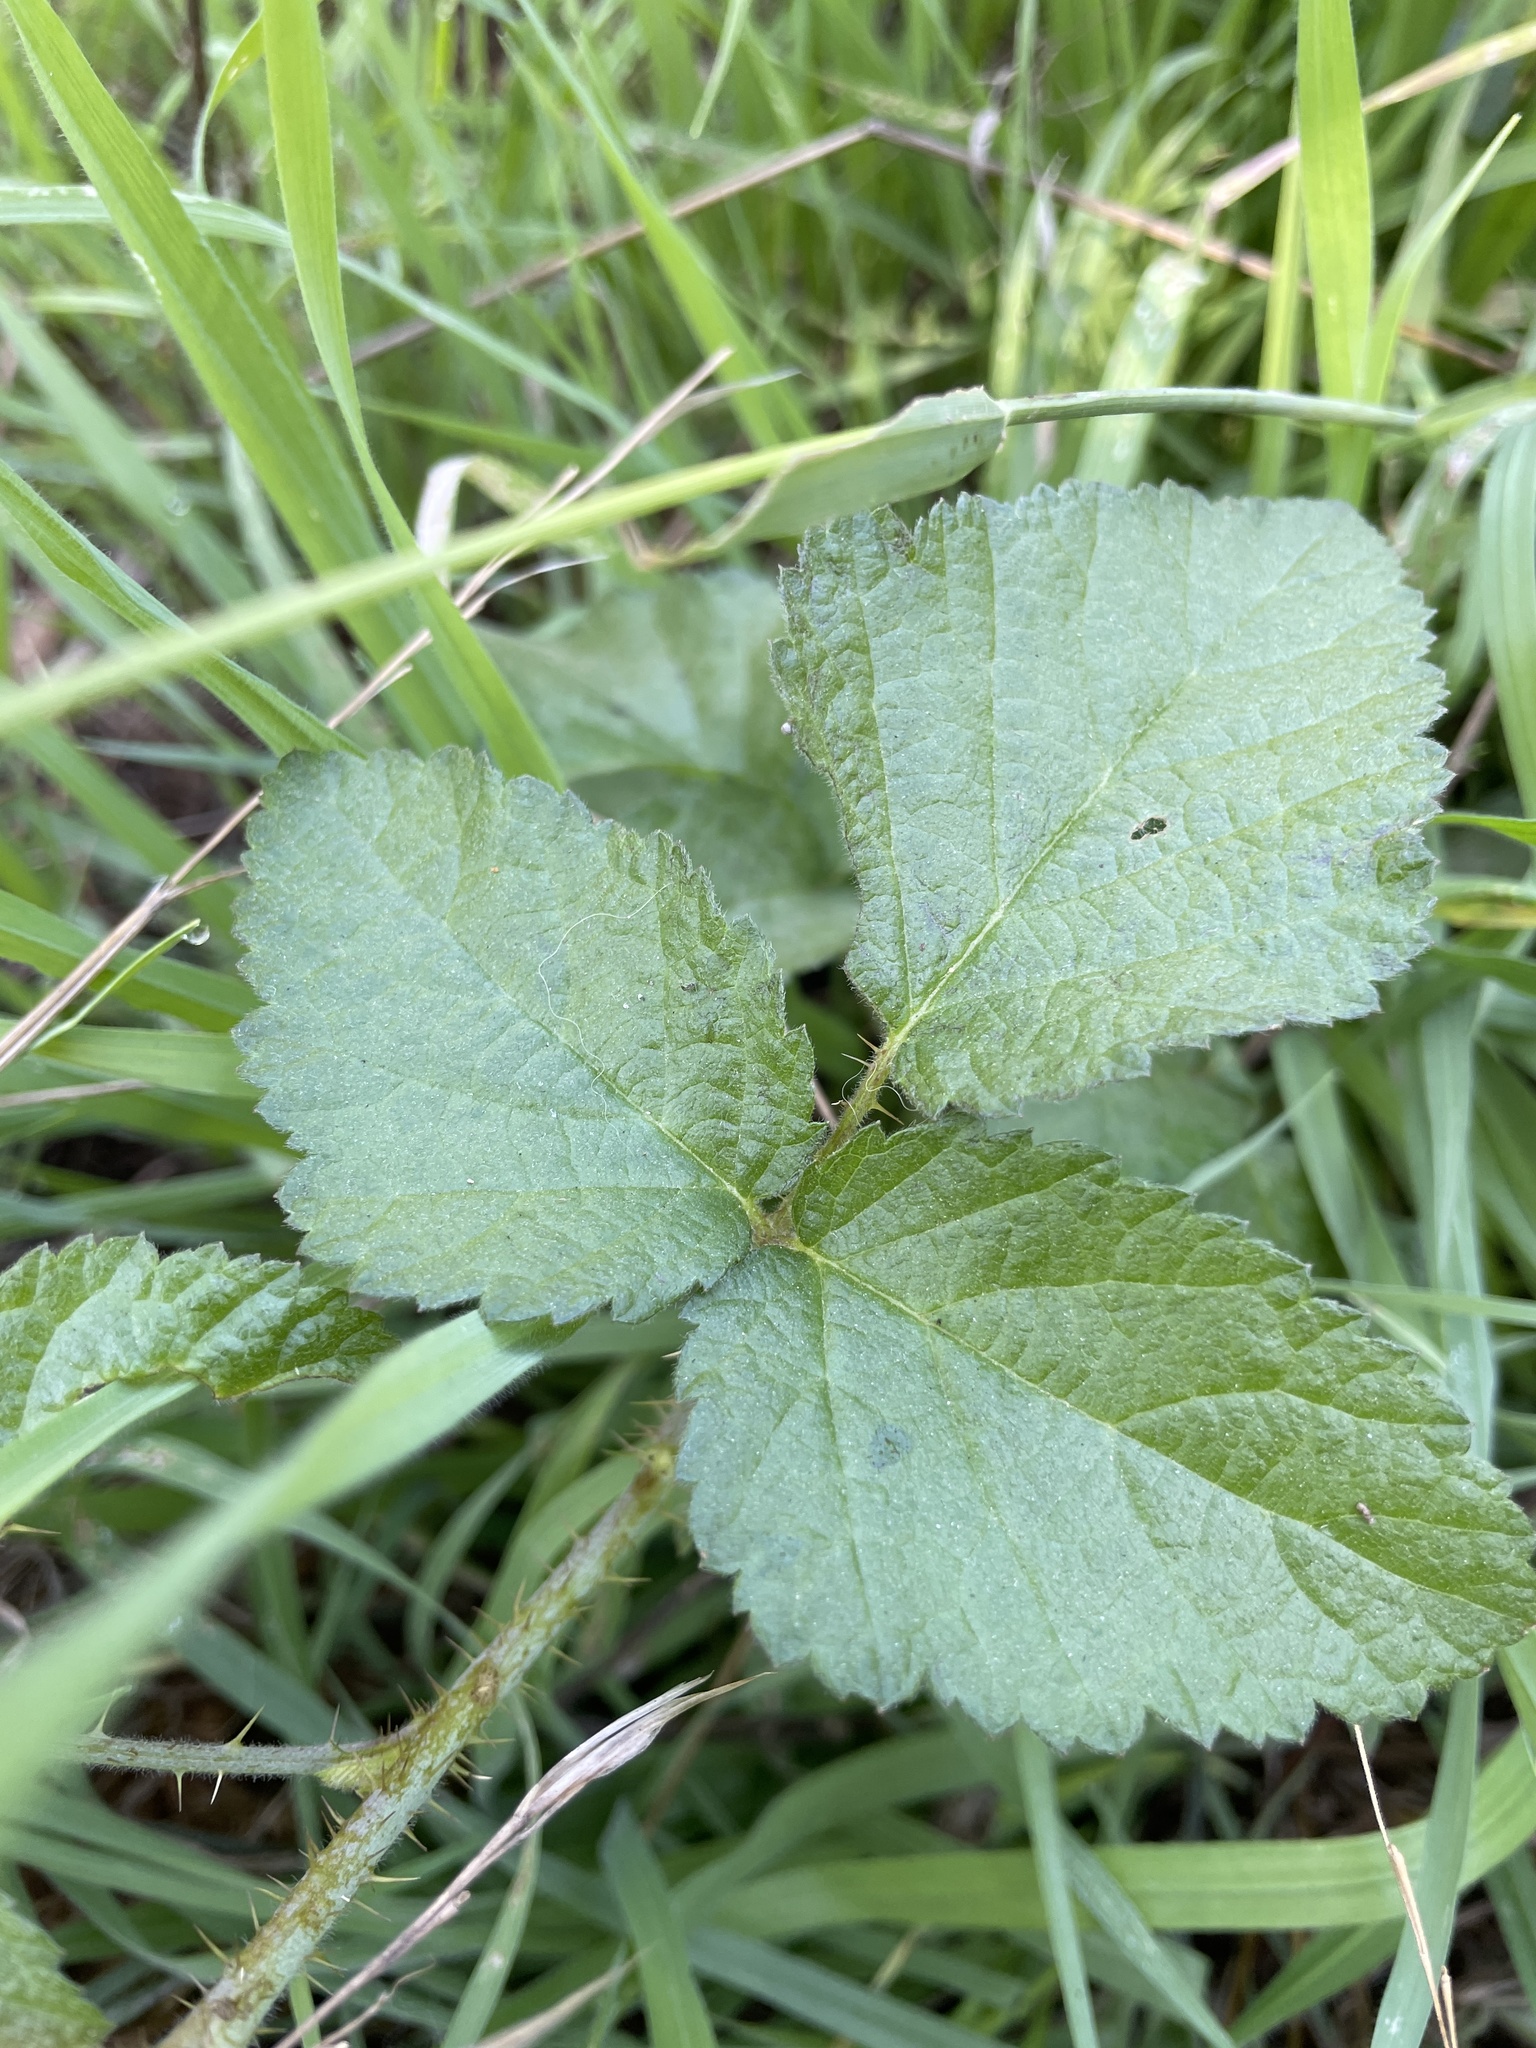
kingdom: Plantae
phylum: Tracheophyta
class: Magnoliopsida
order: Rosales
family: Rosaceae
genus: Rubus
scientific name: Rubus ursinus
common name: Pacific blackberry
